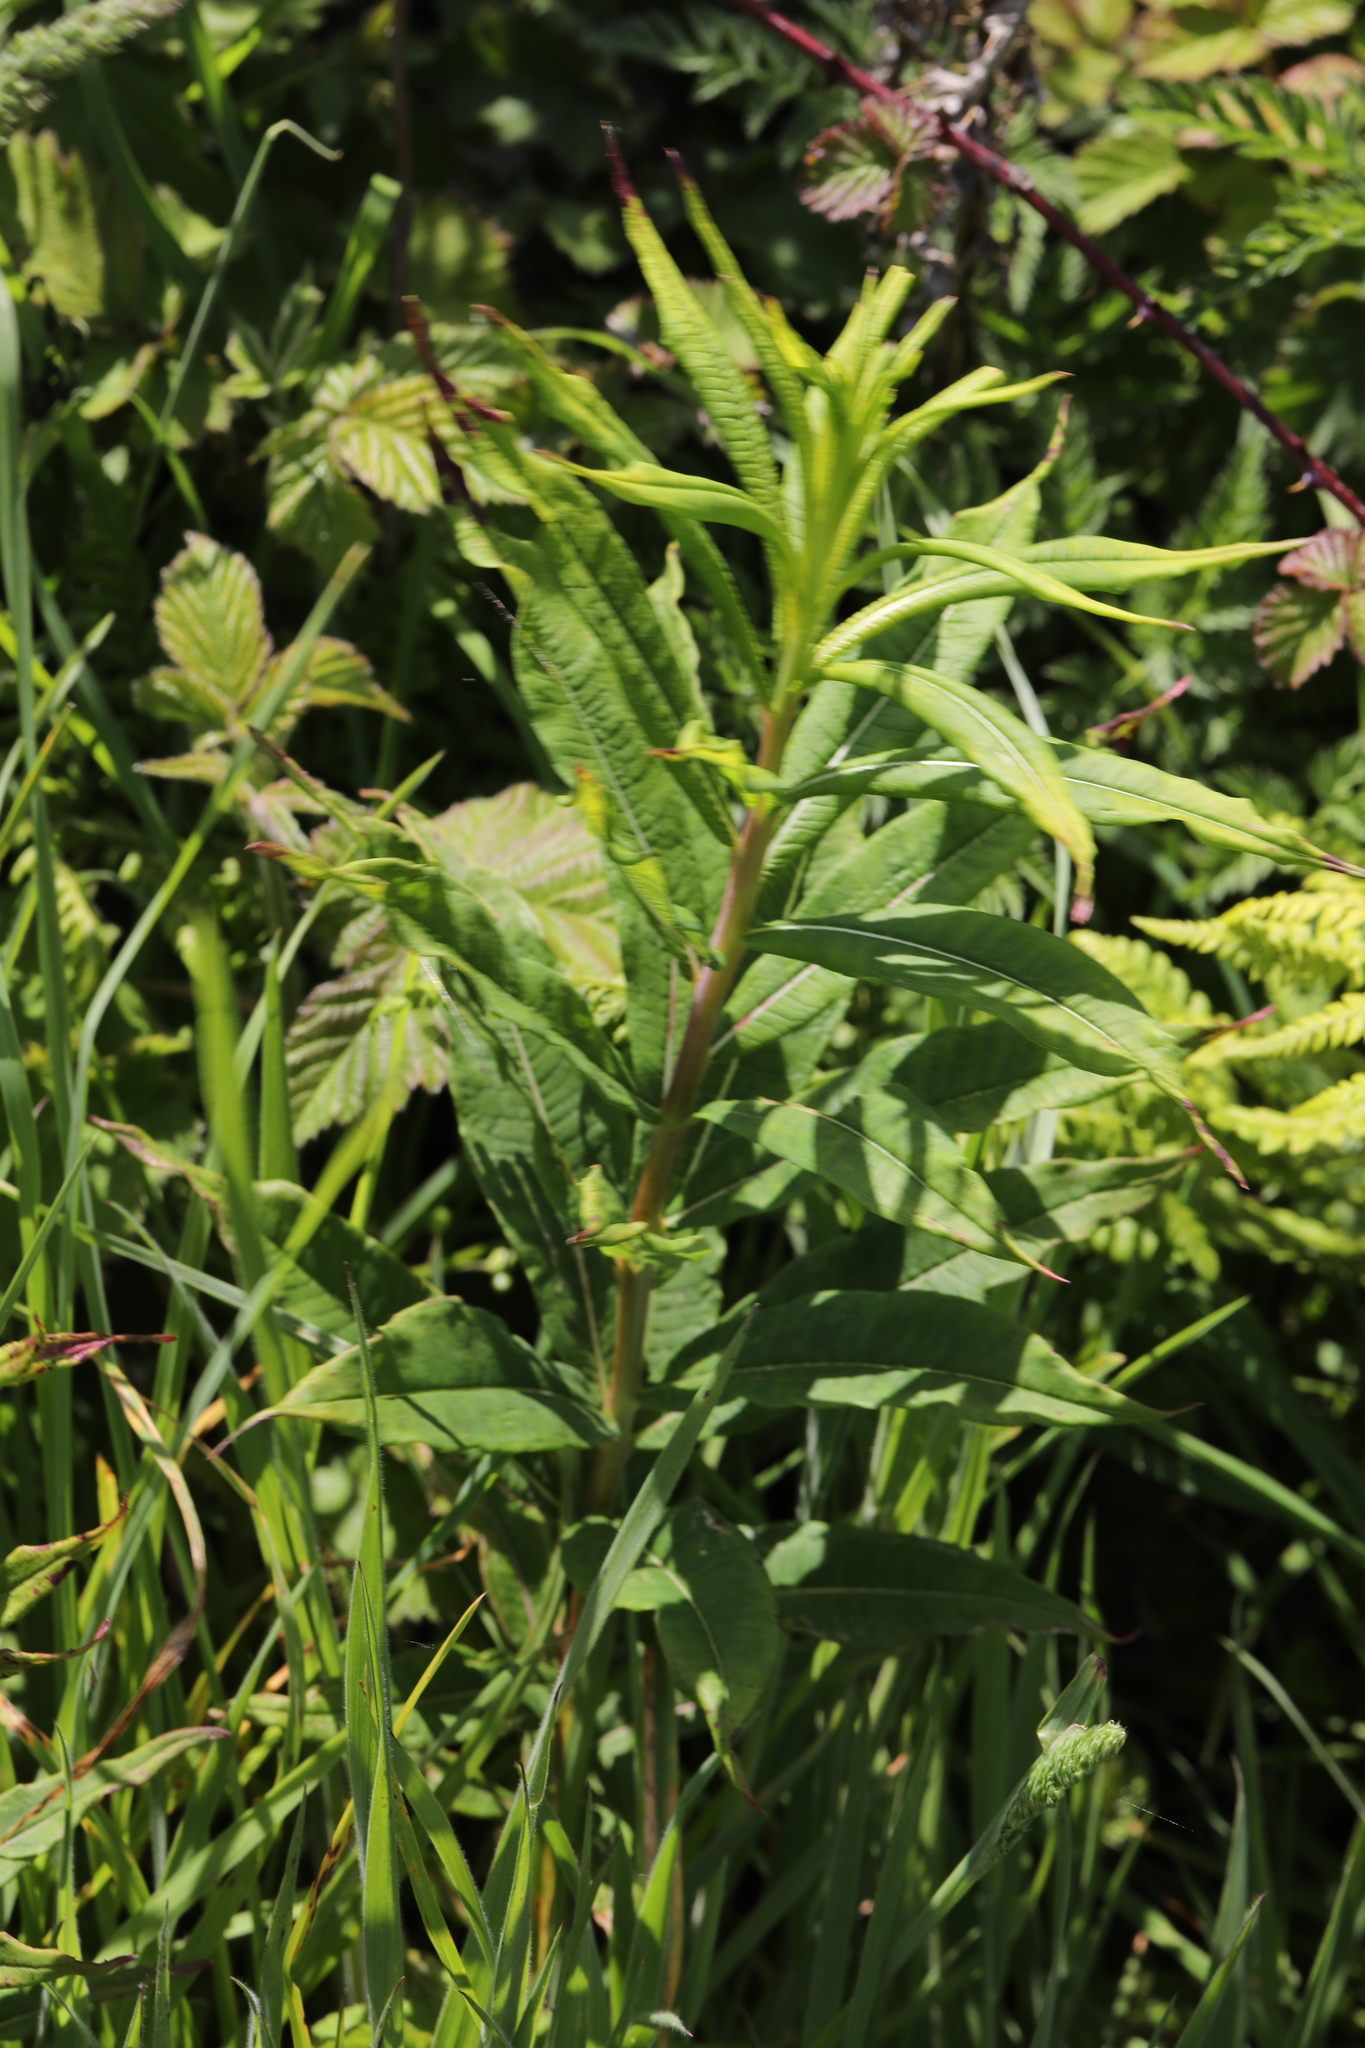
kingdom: Plantae
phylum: Tracheophyta
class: Magnoliopsida
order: Myrtales
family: Onagraceae
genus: Chamaenerion
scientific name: Chamaenerion angustifolium
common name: Fireweed
